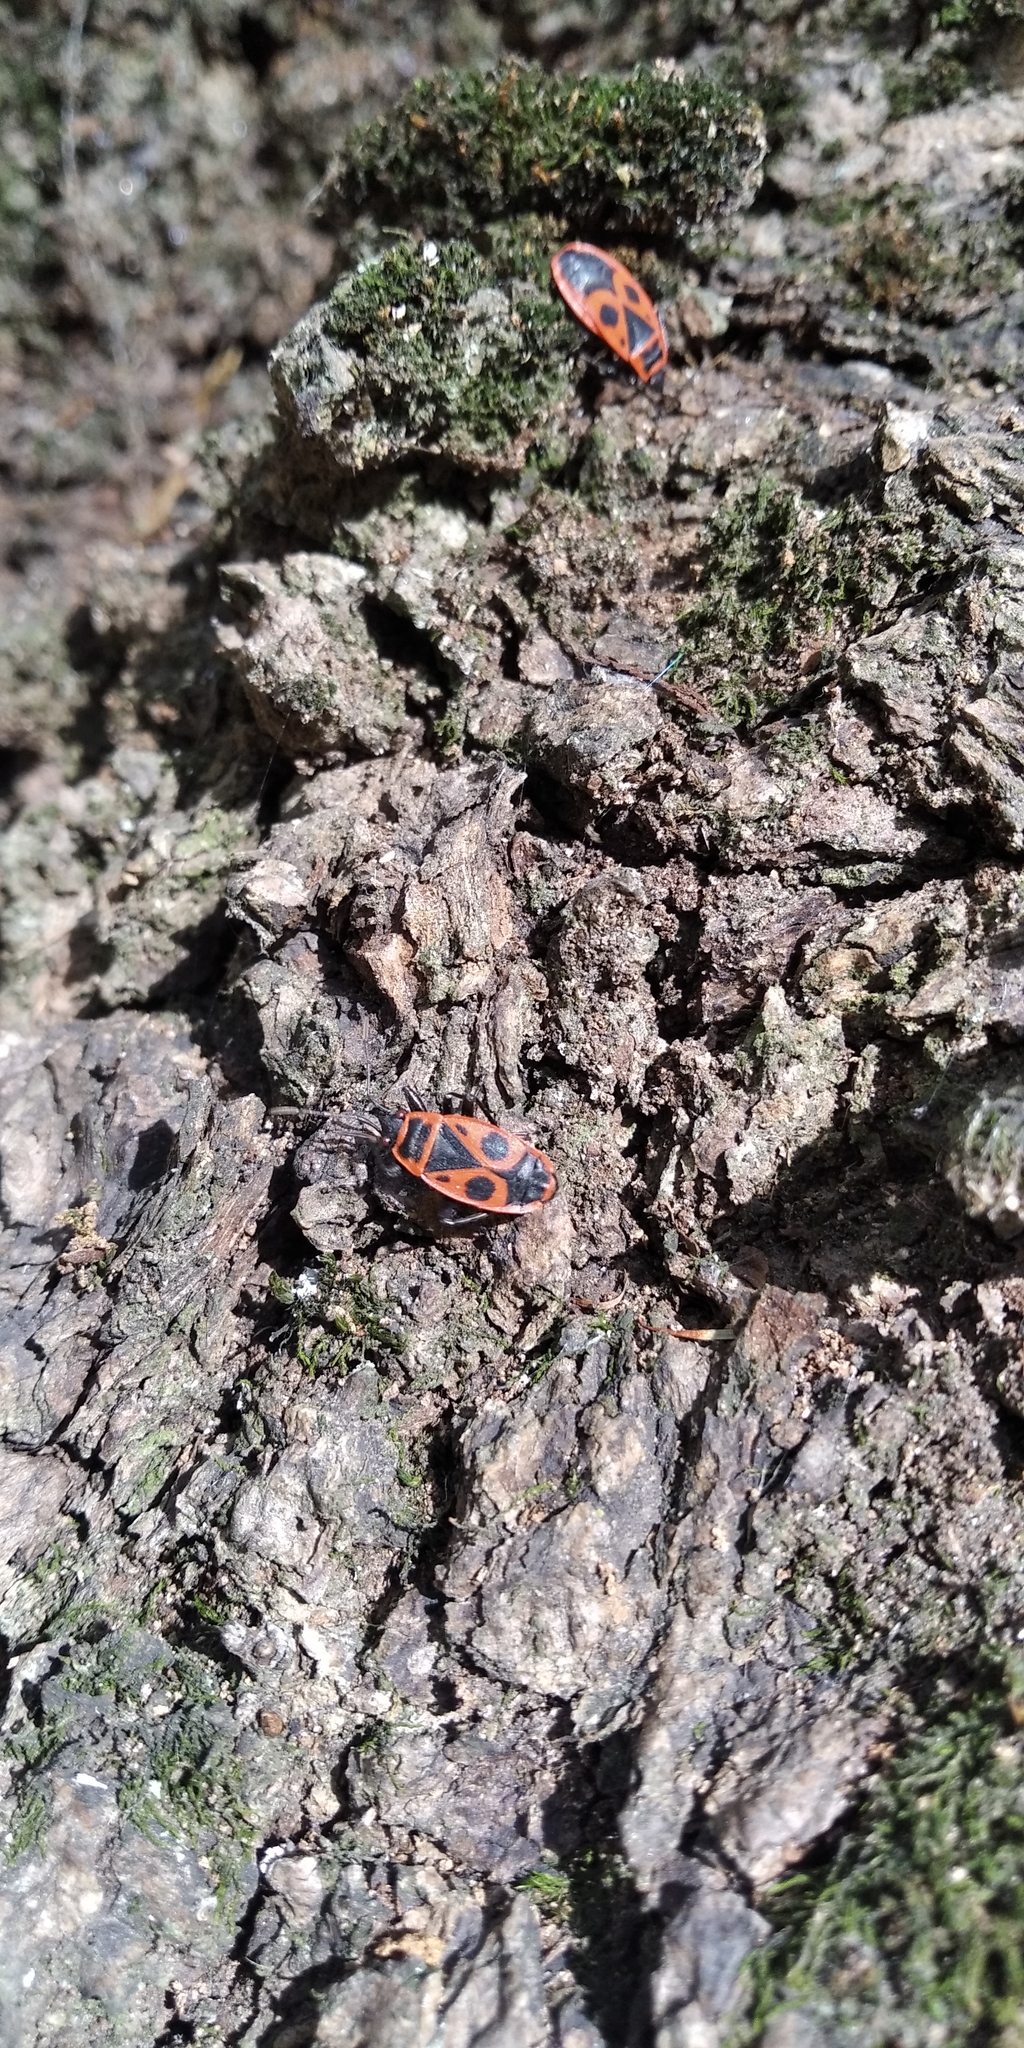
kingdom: Animalia
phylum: Arthropoda
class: Insecta
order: Hemiptera
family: Pyrrhocoridae
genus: Pyrrhocoris
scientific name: Pyrrhocoris apterus
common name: Firebug
